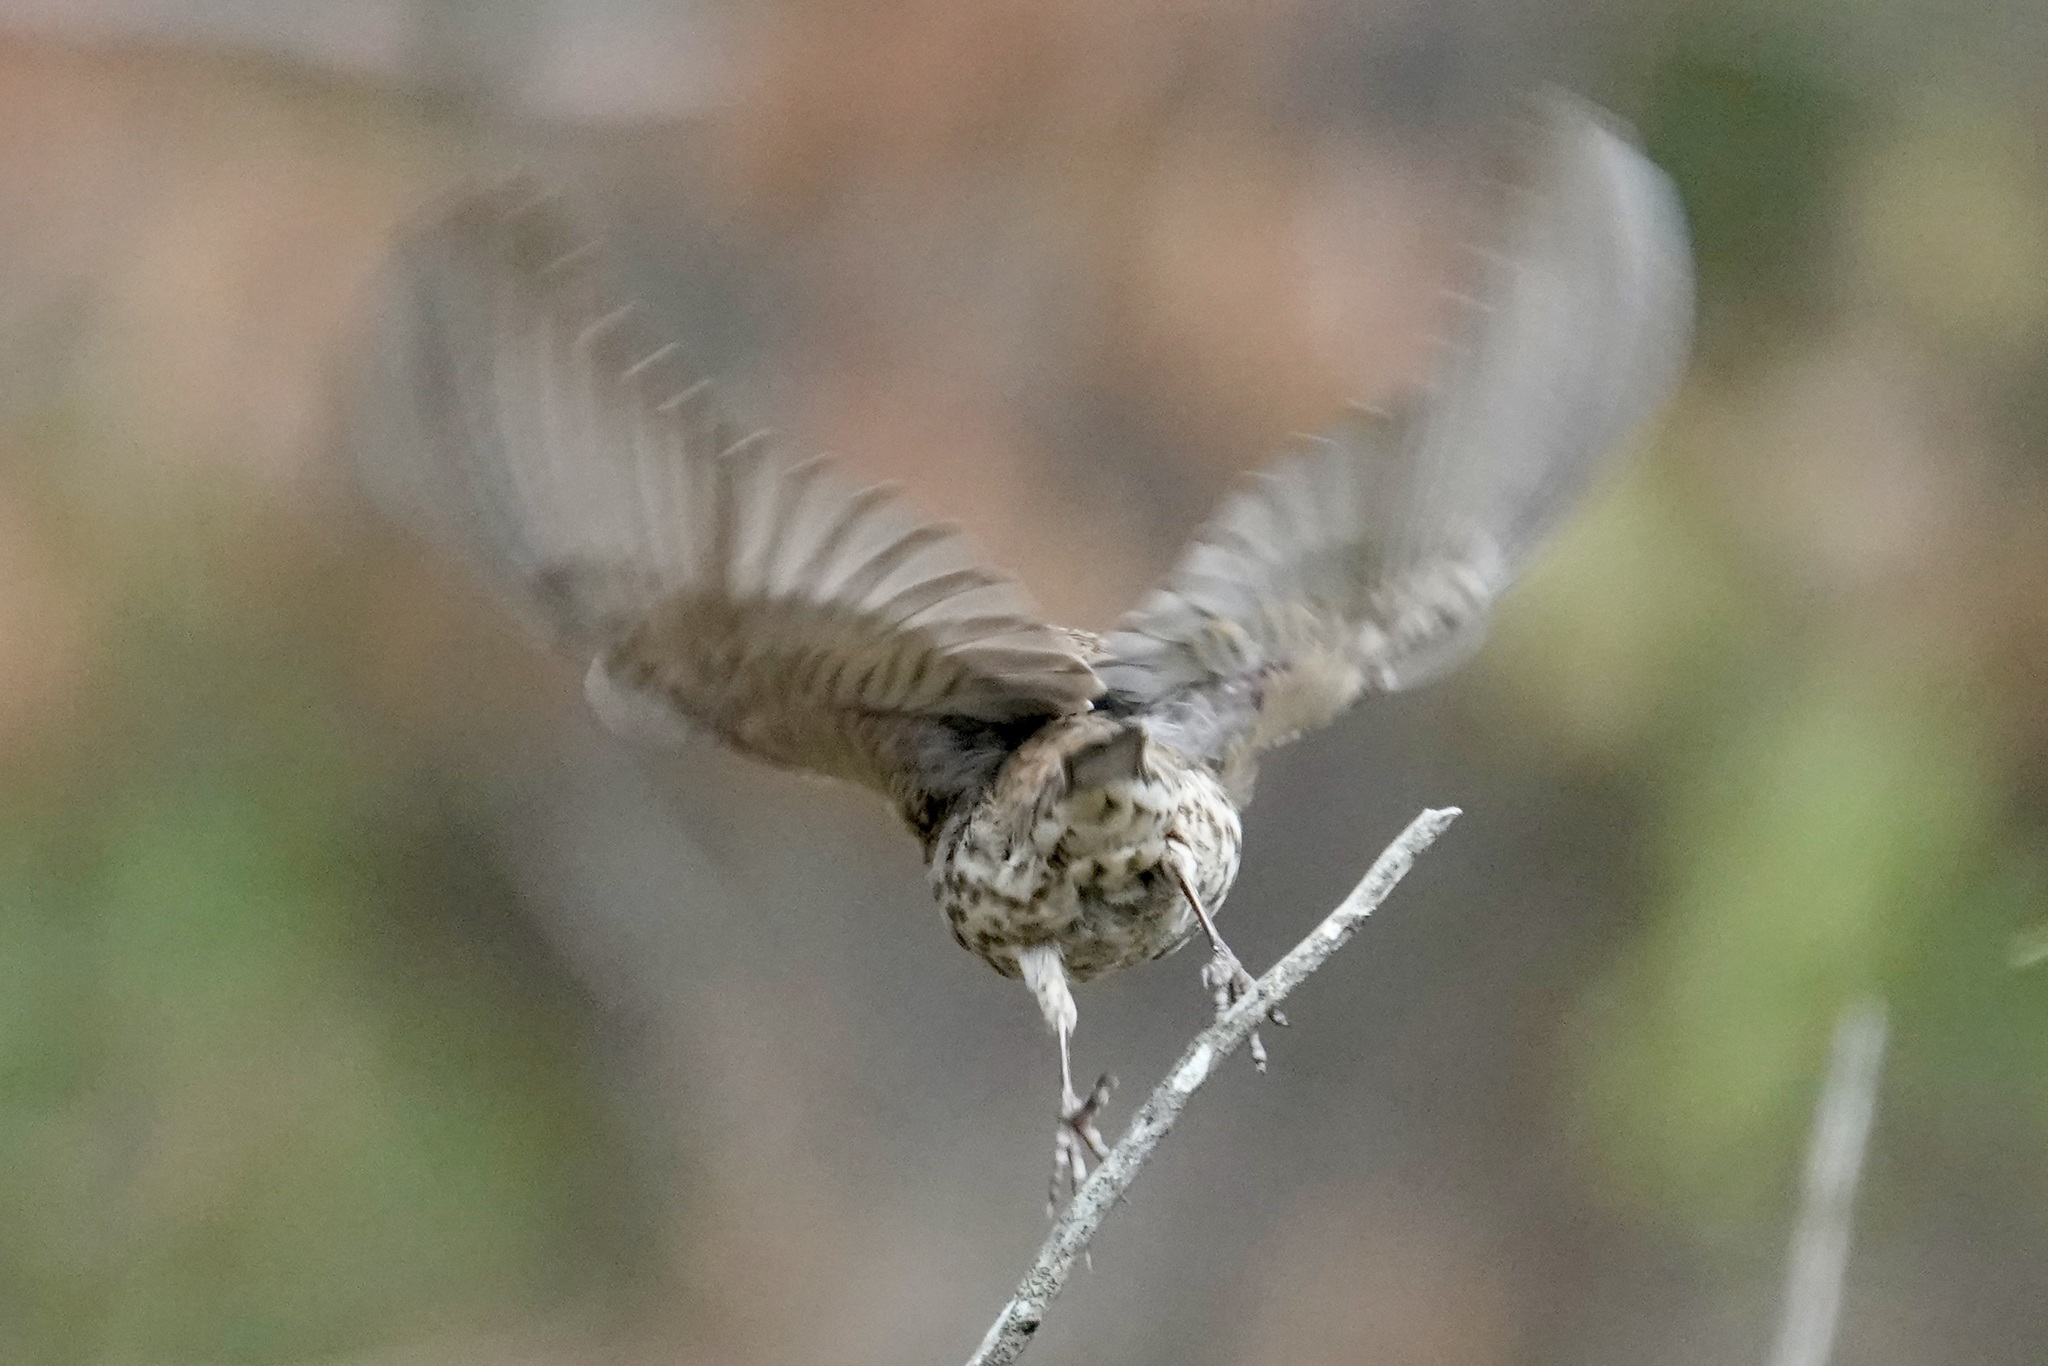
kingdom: Animalia
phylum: Chordata
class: Aves
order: Passeriformes
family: Fringillidae
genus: Haemorhous
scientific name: Haemorhous mexicanus
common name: House finch
